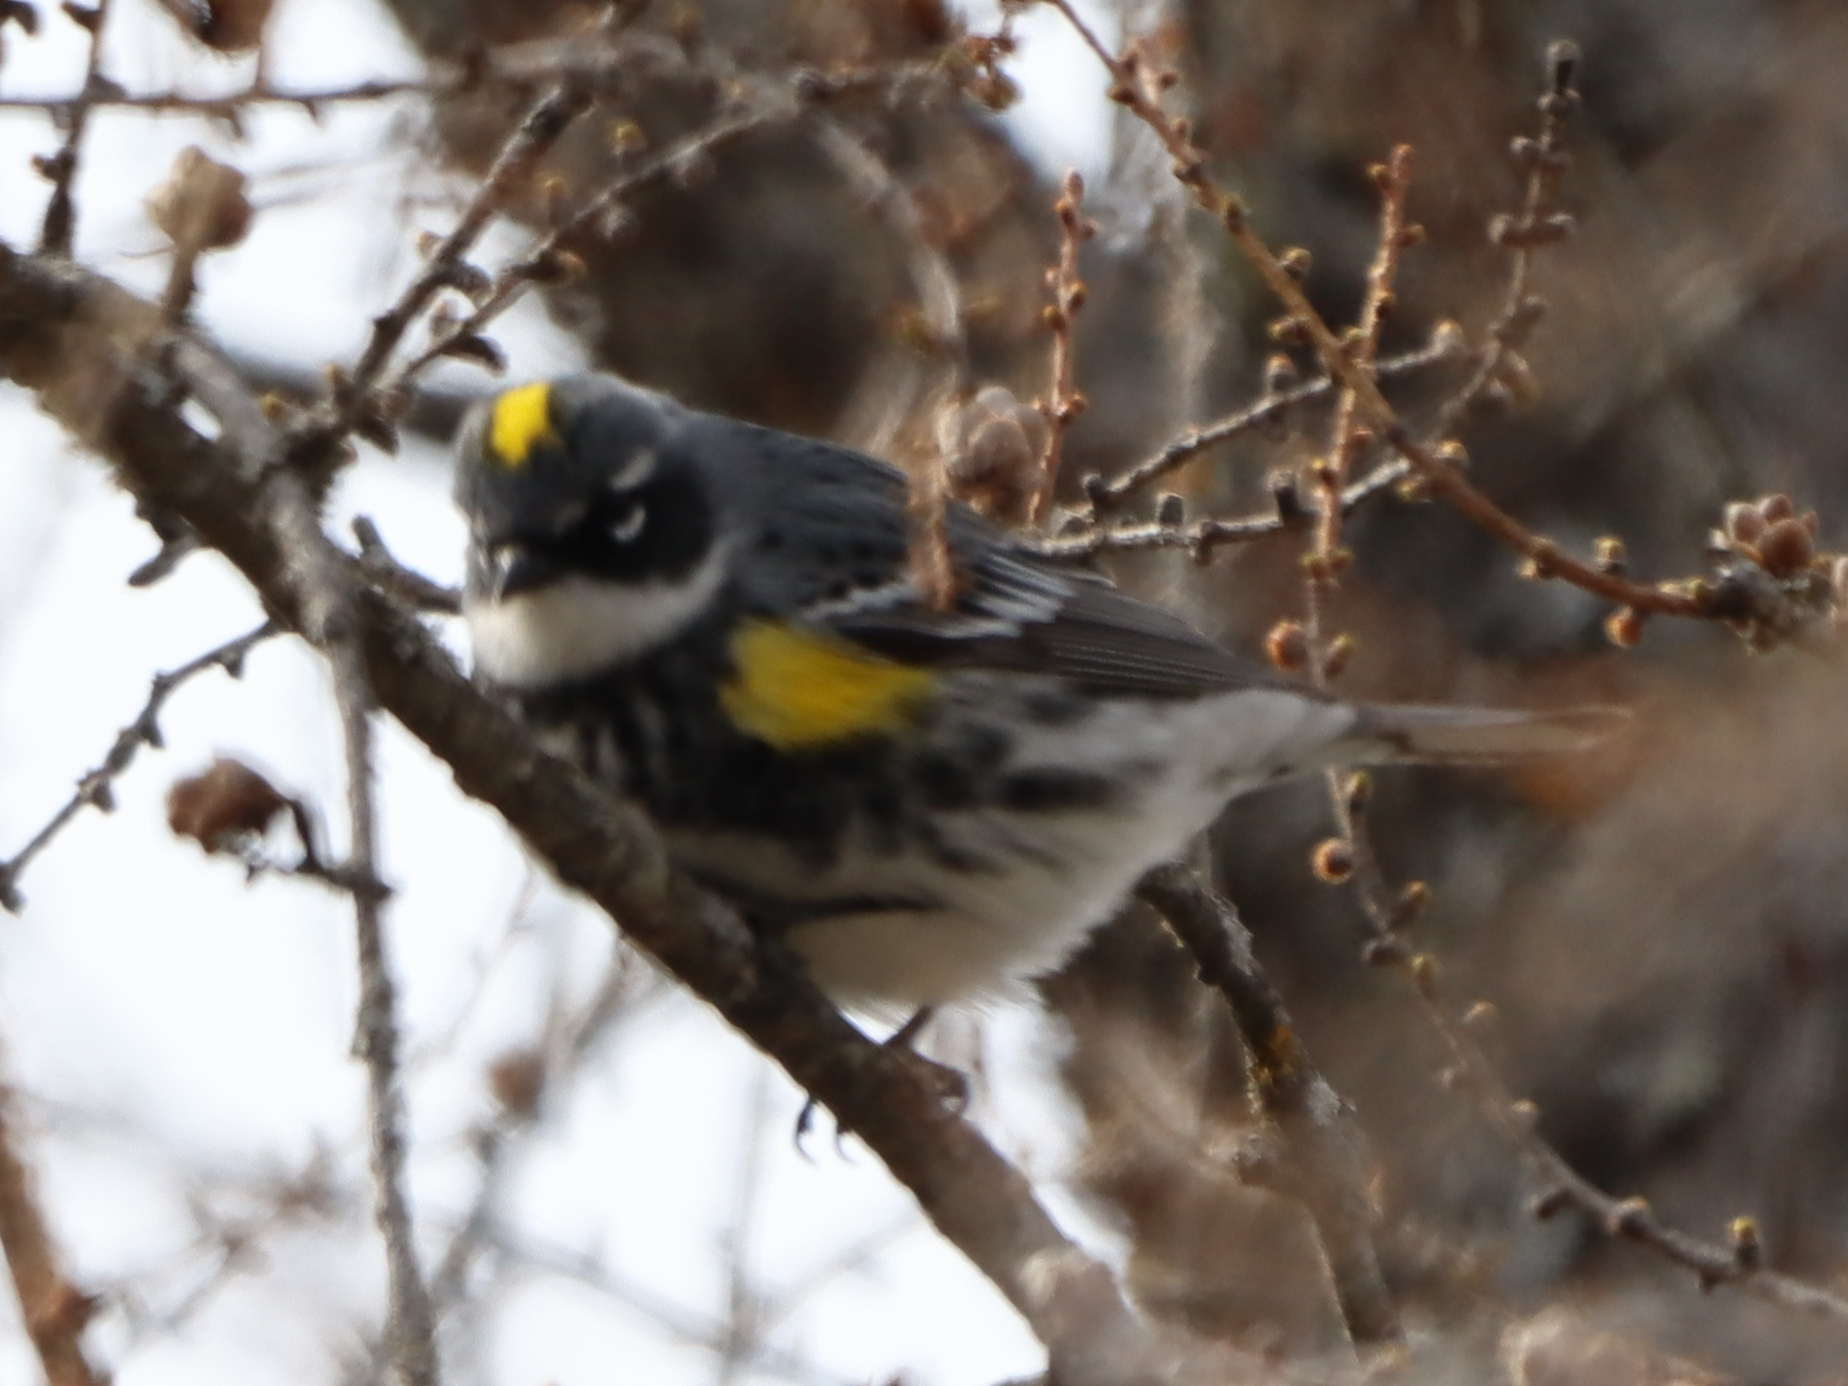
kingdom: Animalia
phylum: Chordata
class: Aves
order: Passeriformes
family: Parulidae
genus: Setophaga
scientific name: Setophaga coronata
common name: Myrtle warbler
